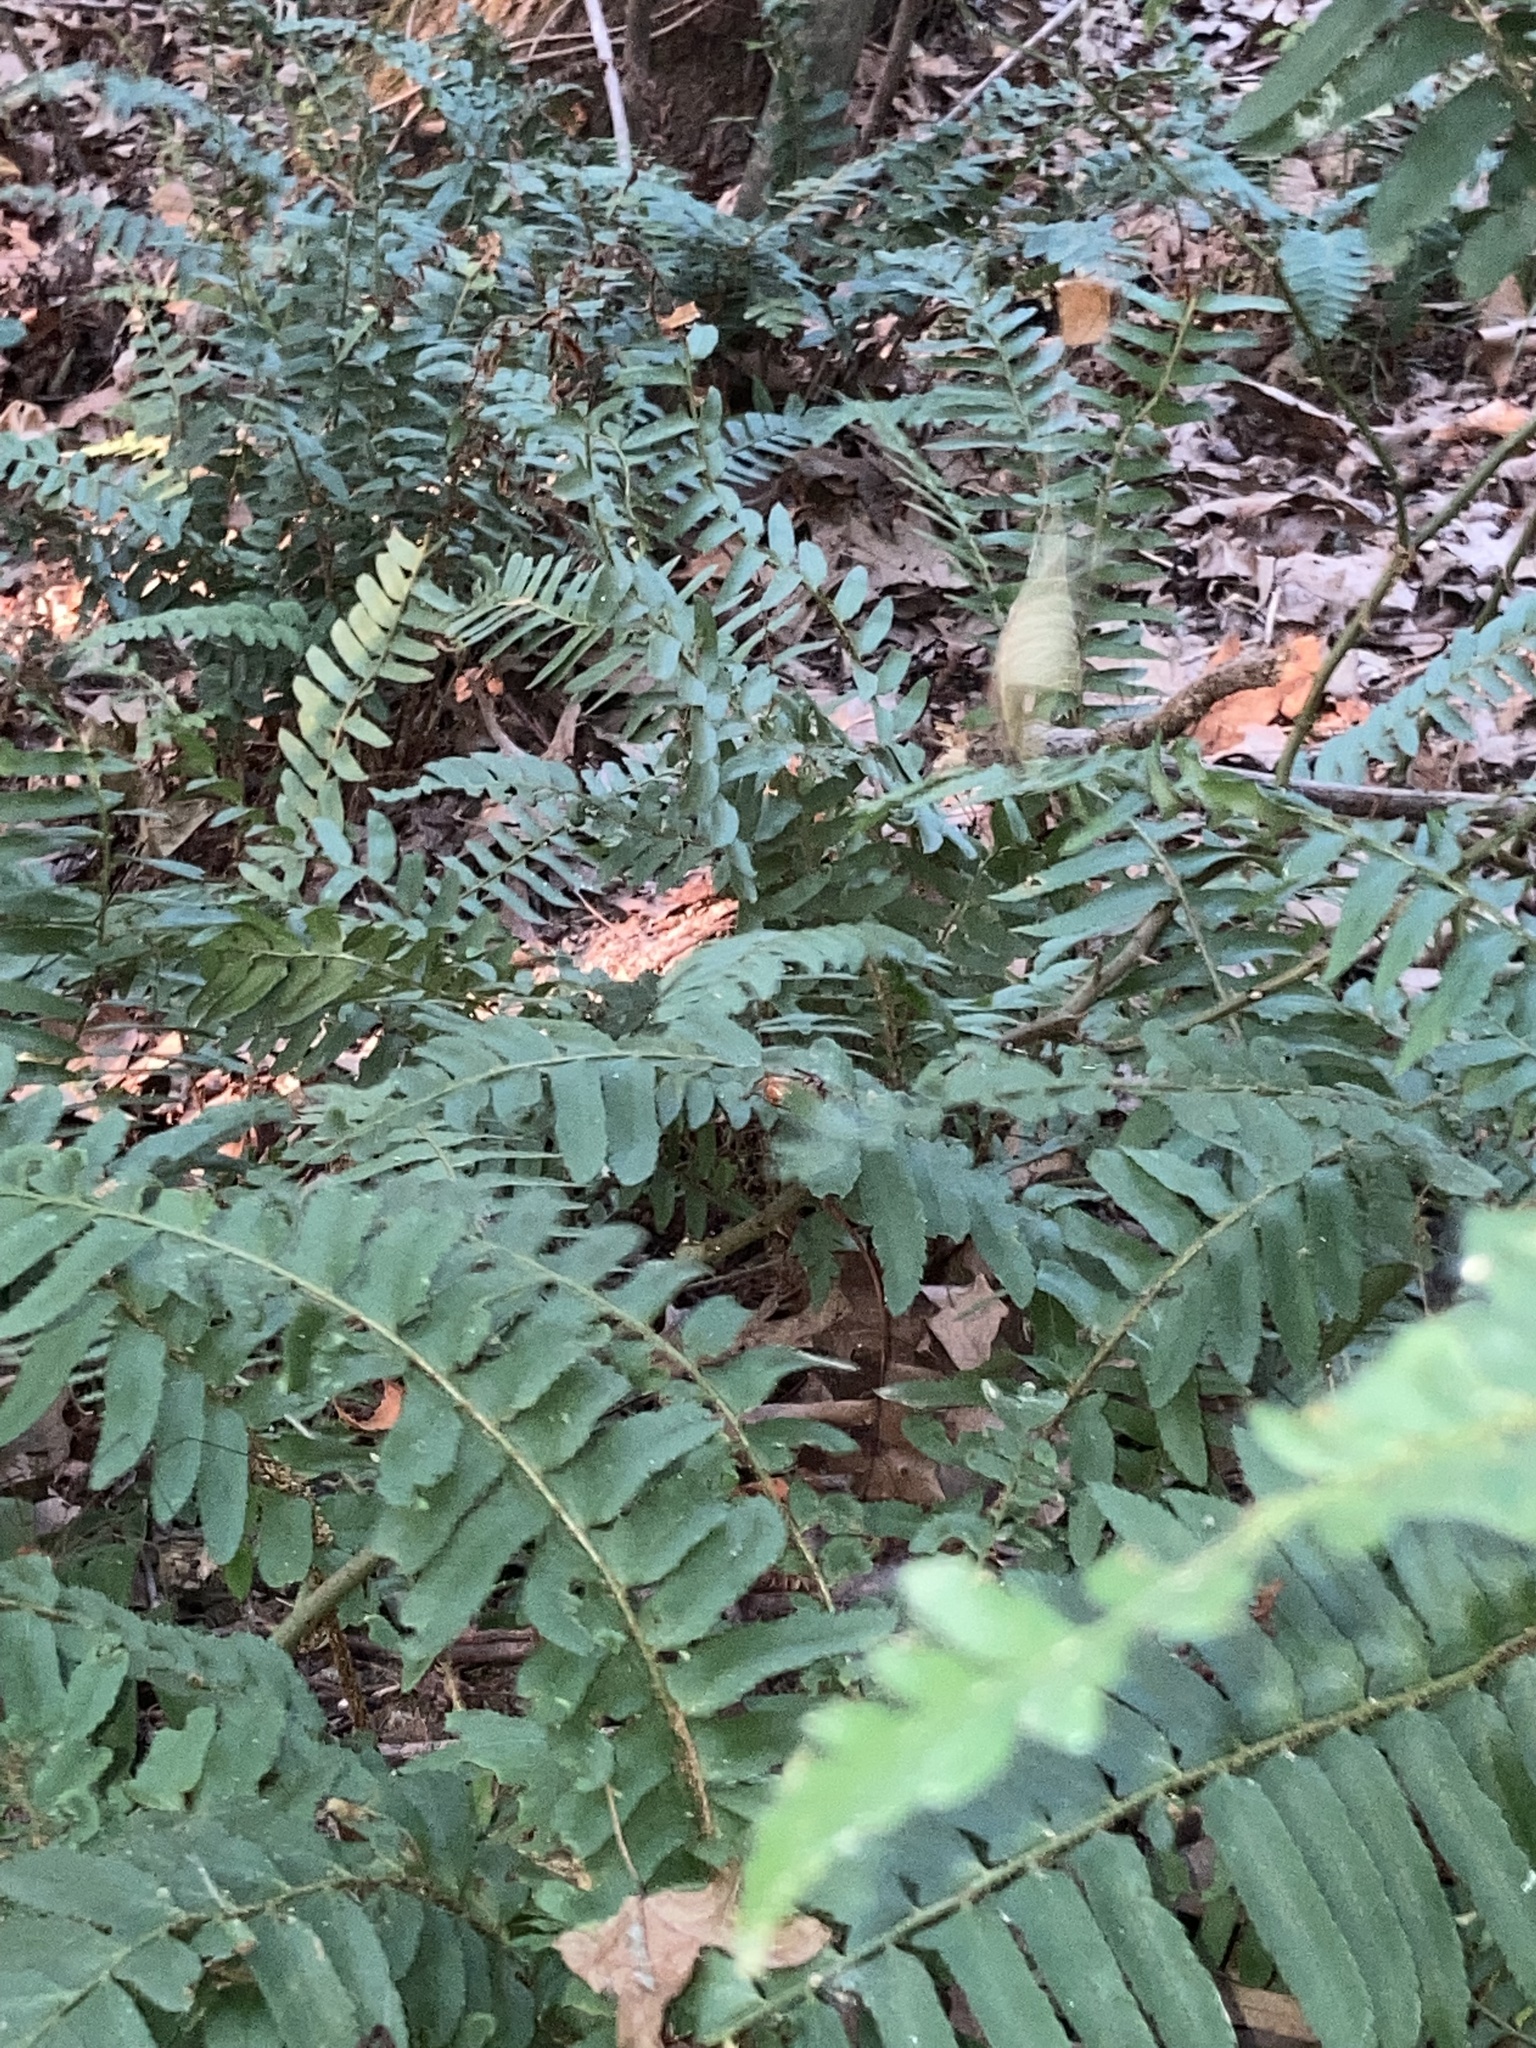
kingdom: Plantae
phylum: Tracheophyta
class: Polypodiopsida
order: Polypodiales
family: Dryopteridaceae
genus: Polystichum
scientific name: Polystichum acrostichoides
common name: Christmas fern
